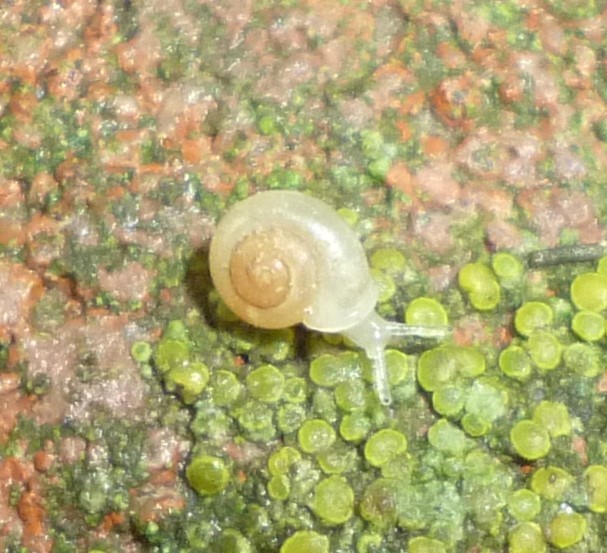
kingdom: Animalia
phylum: Mollusca
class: Gastropoda
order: Stylommatophora
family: Valloniidae
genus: Vallonia
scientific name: Vallonia excentrica
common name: Eccentric grass snail
